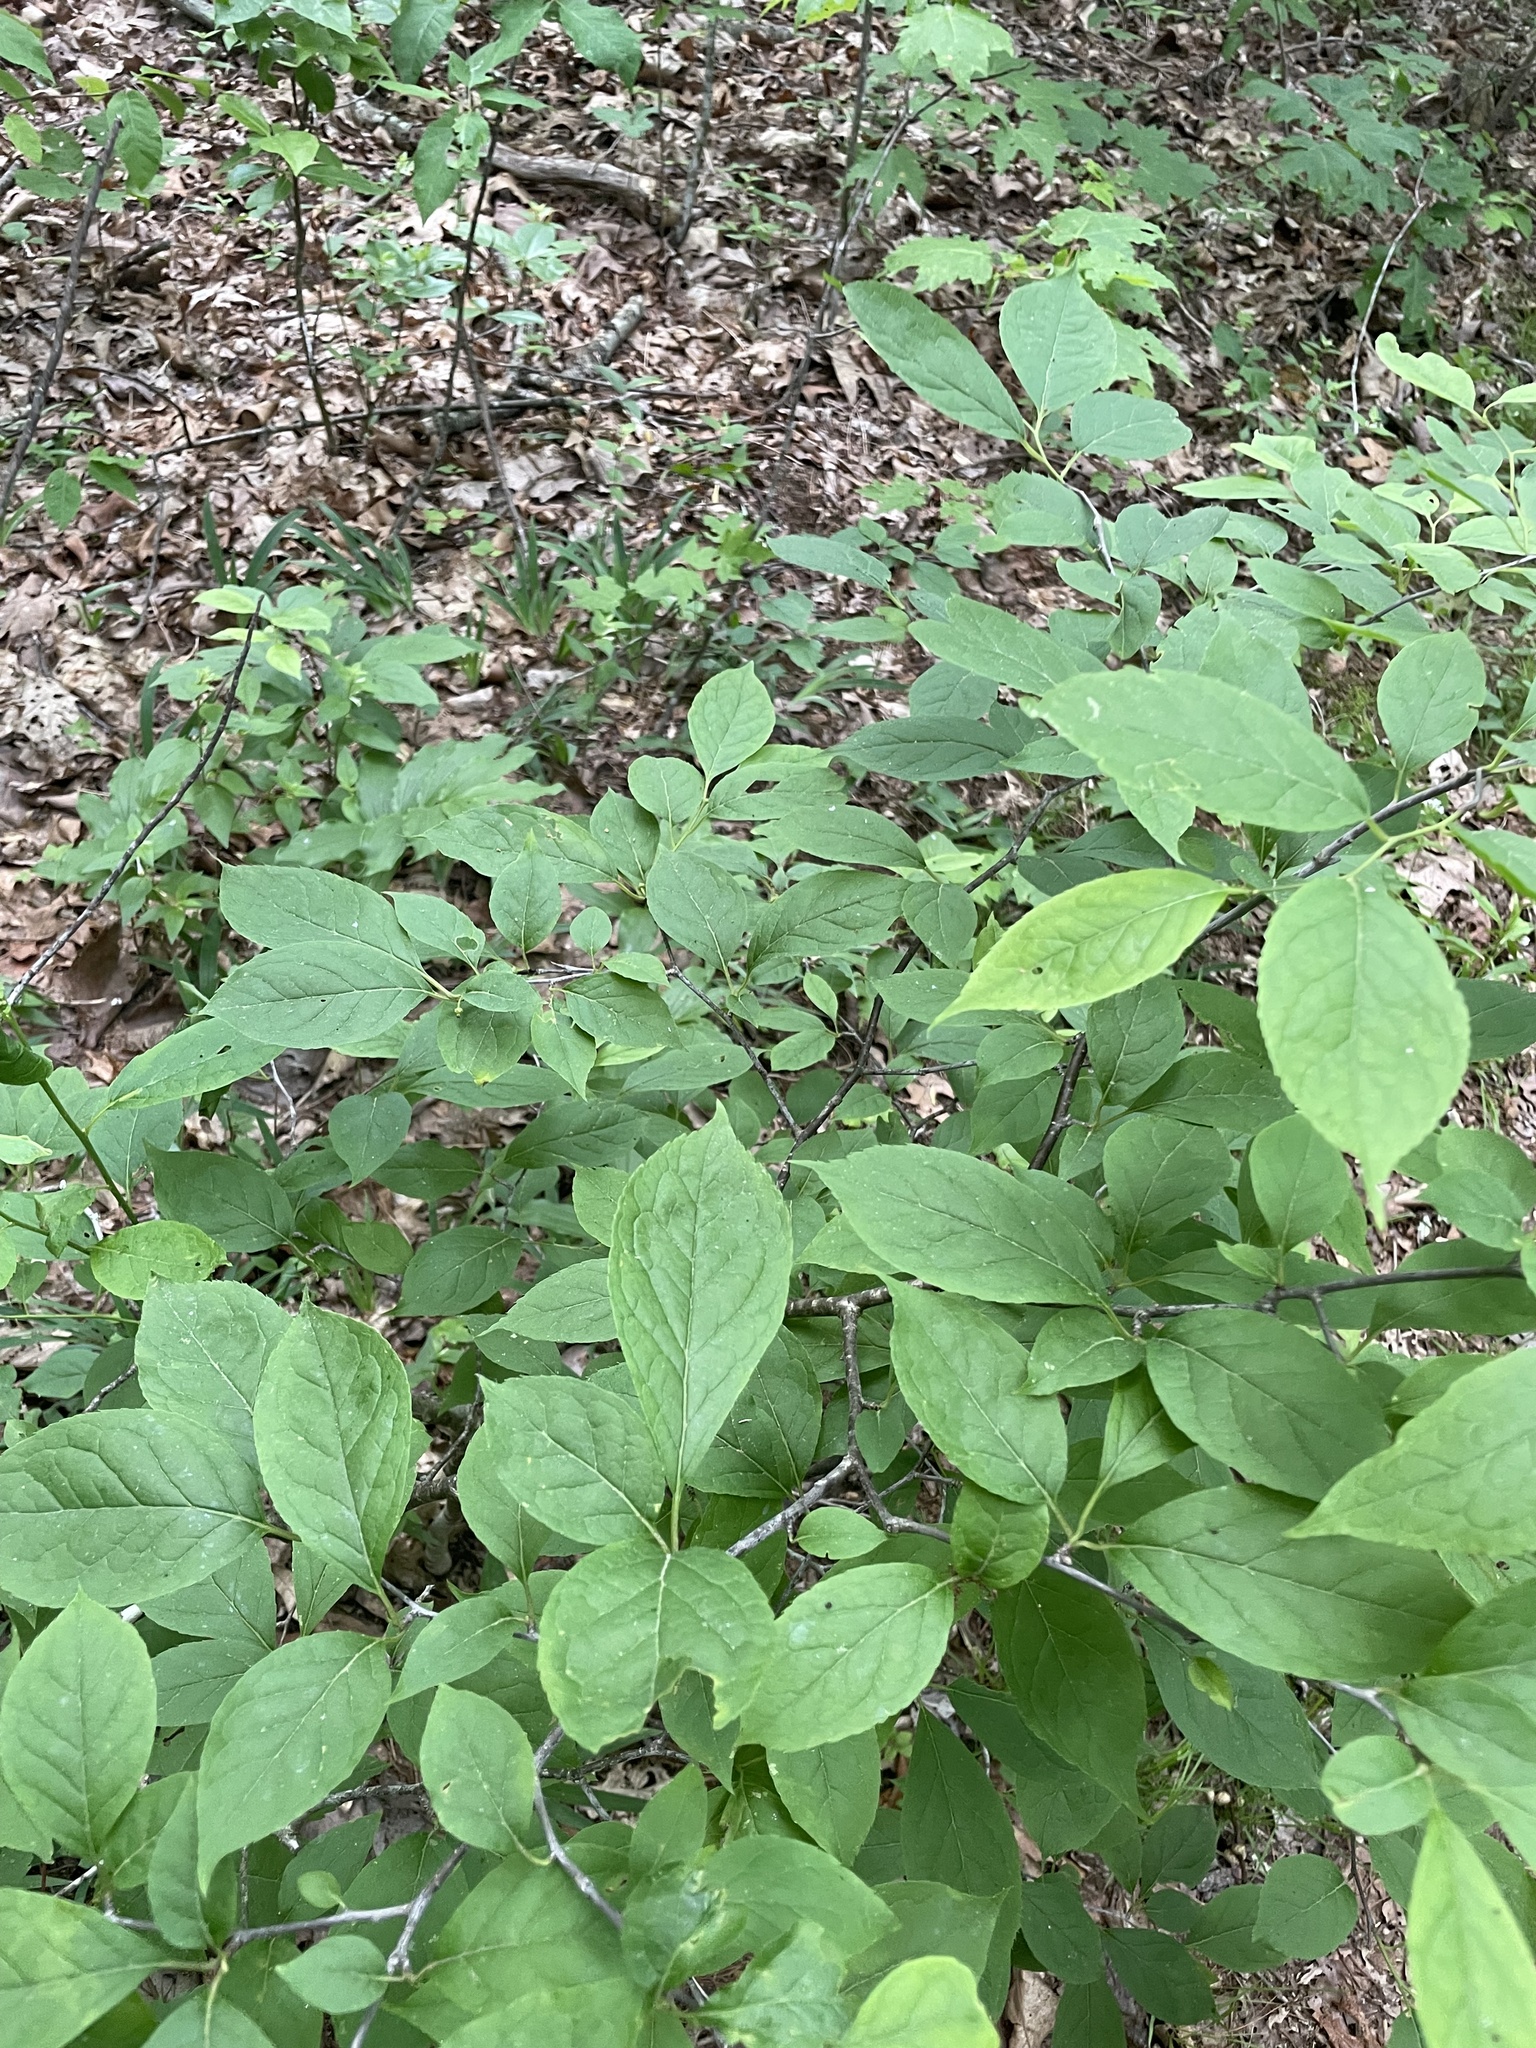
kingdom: Plantae
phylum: Tracheophyta
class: Magnoliopsida
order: Aquifoliales
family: Aquifoliaceae
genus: Ilex
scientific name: Ilex montana
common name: Mountain winterberry
